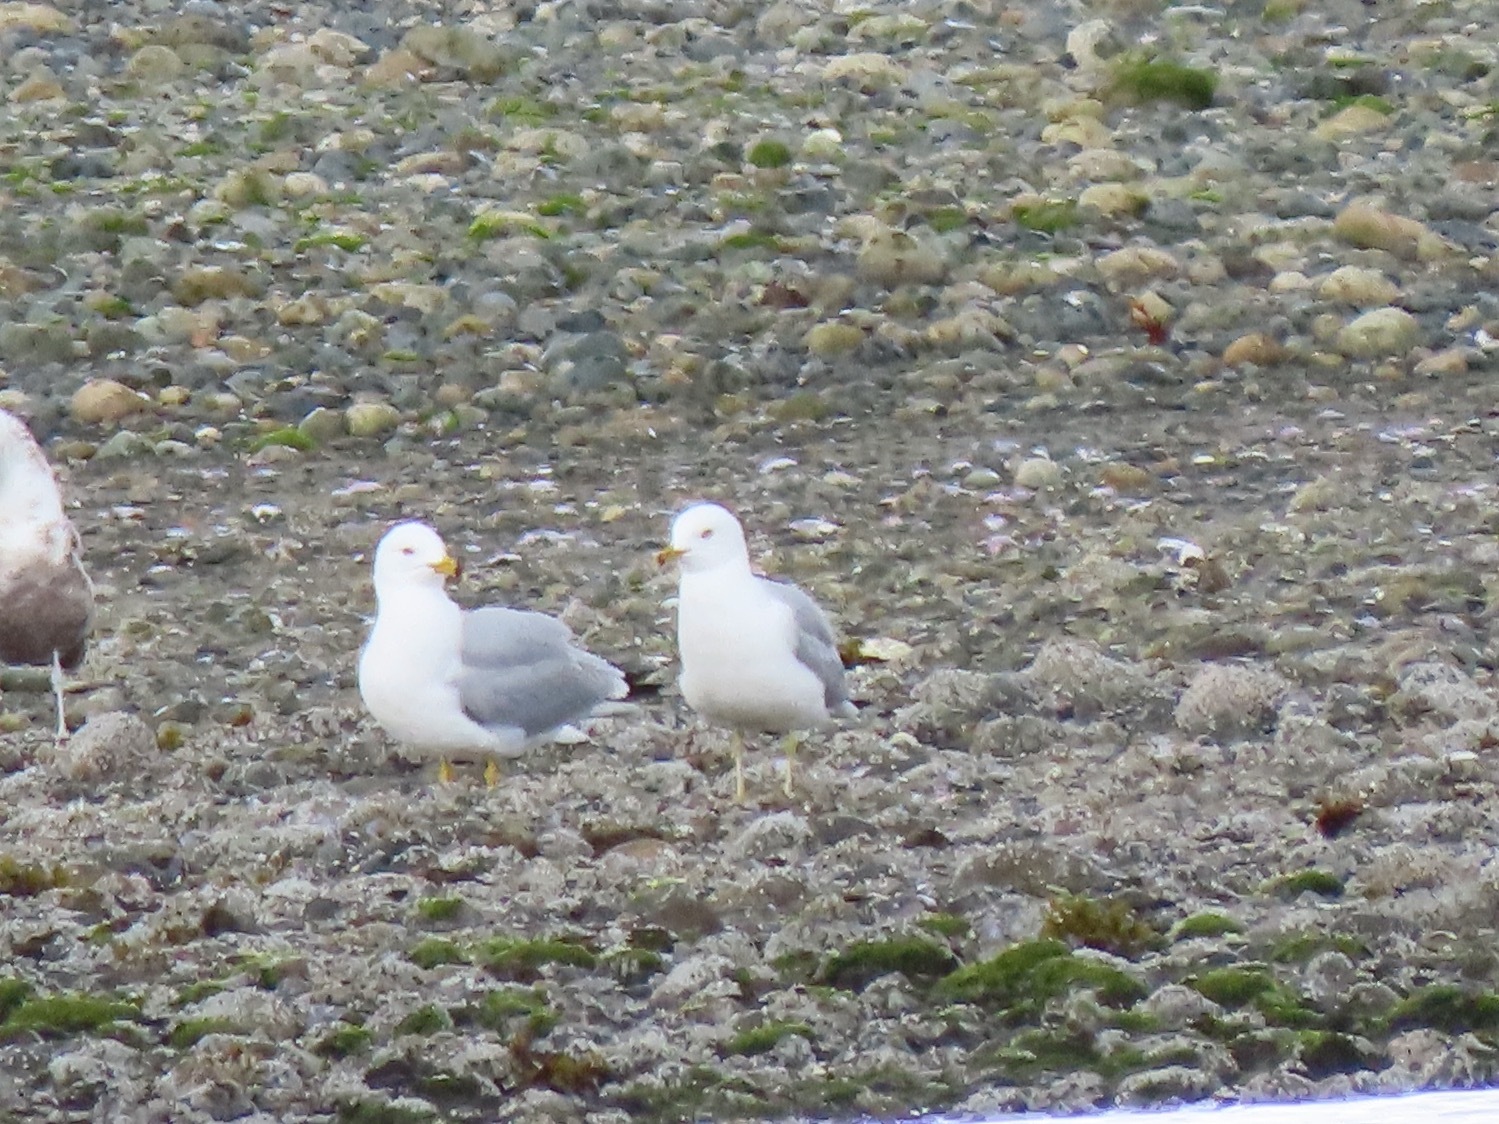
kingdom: Animalia
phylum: Chordata
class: Aves
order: Charadriiformes
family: Laridae
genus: Larus
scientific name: Larus delawarensis
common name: Ring-billed gull
